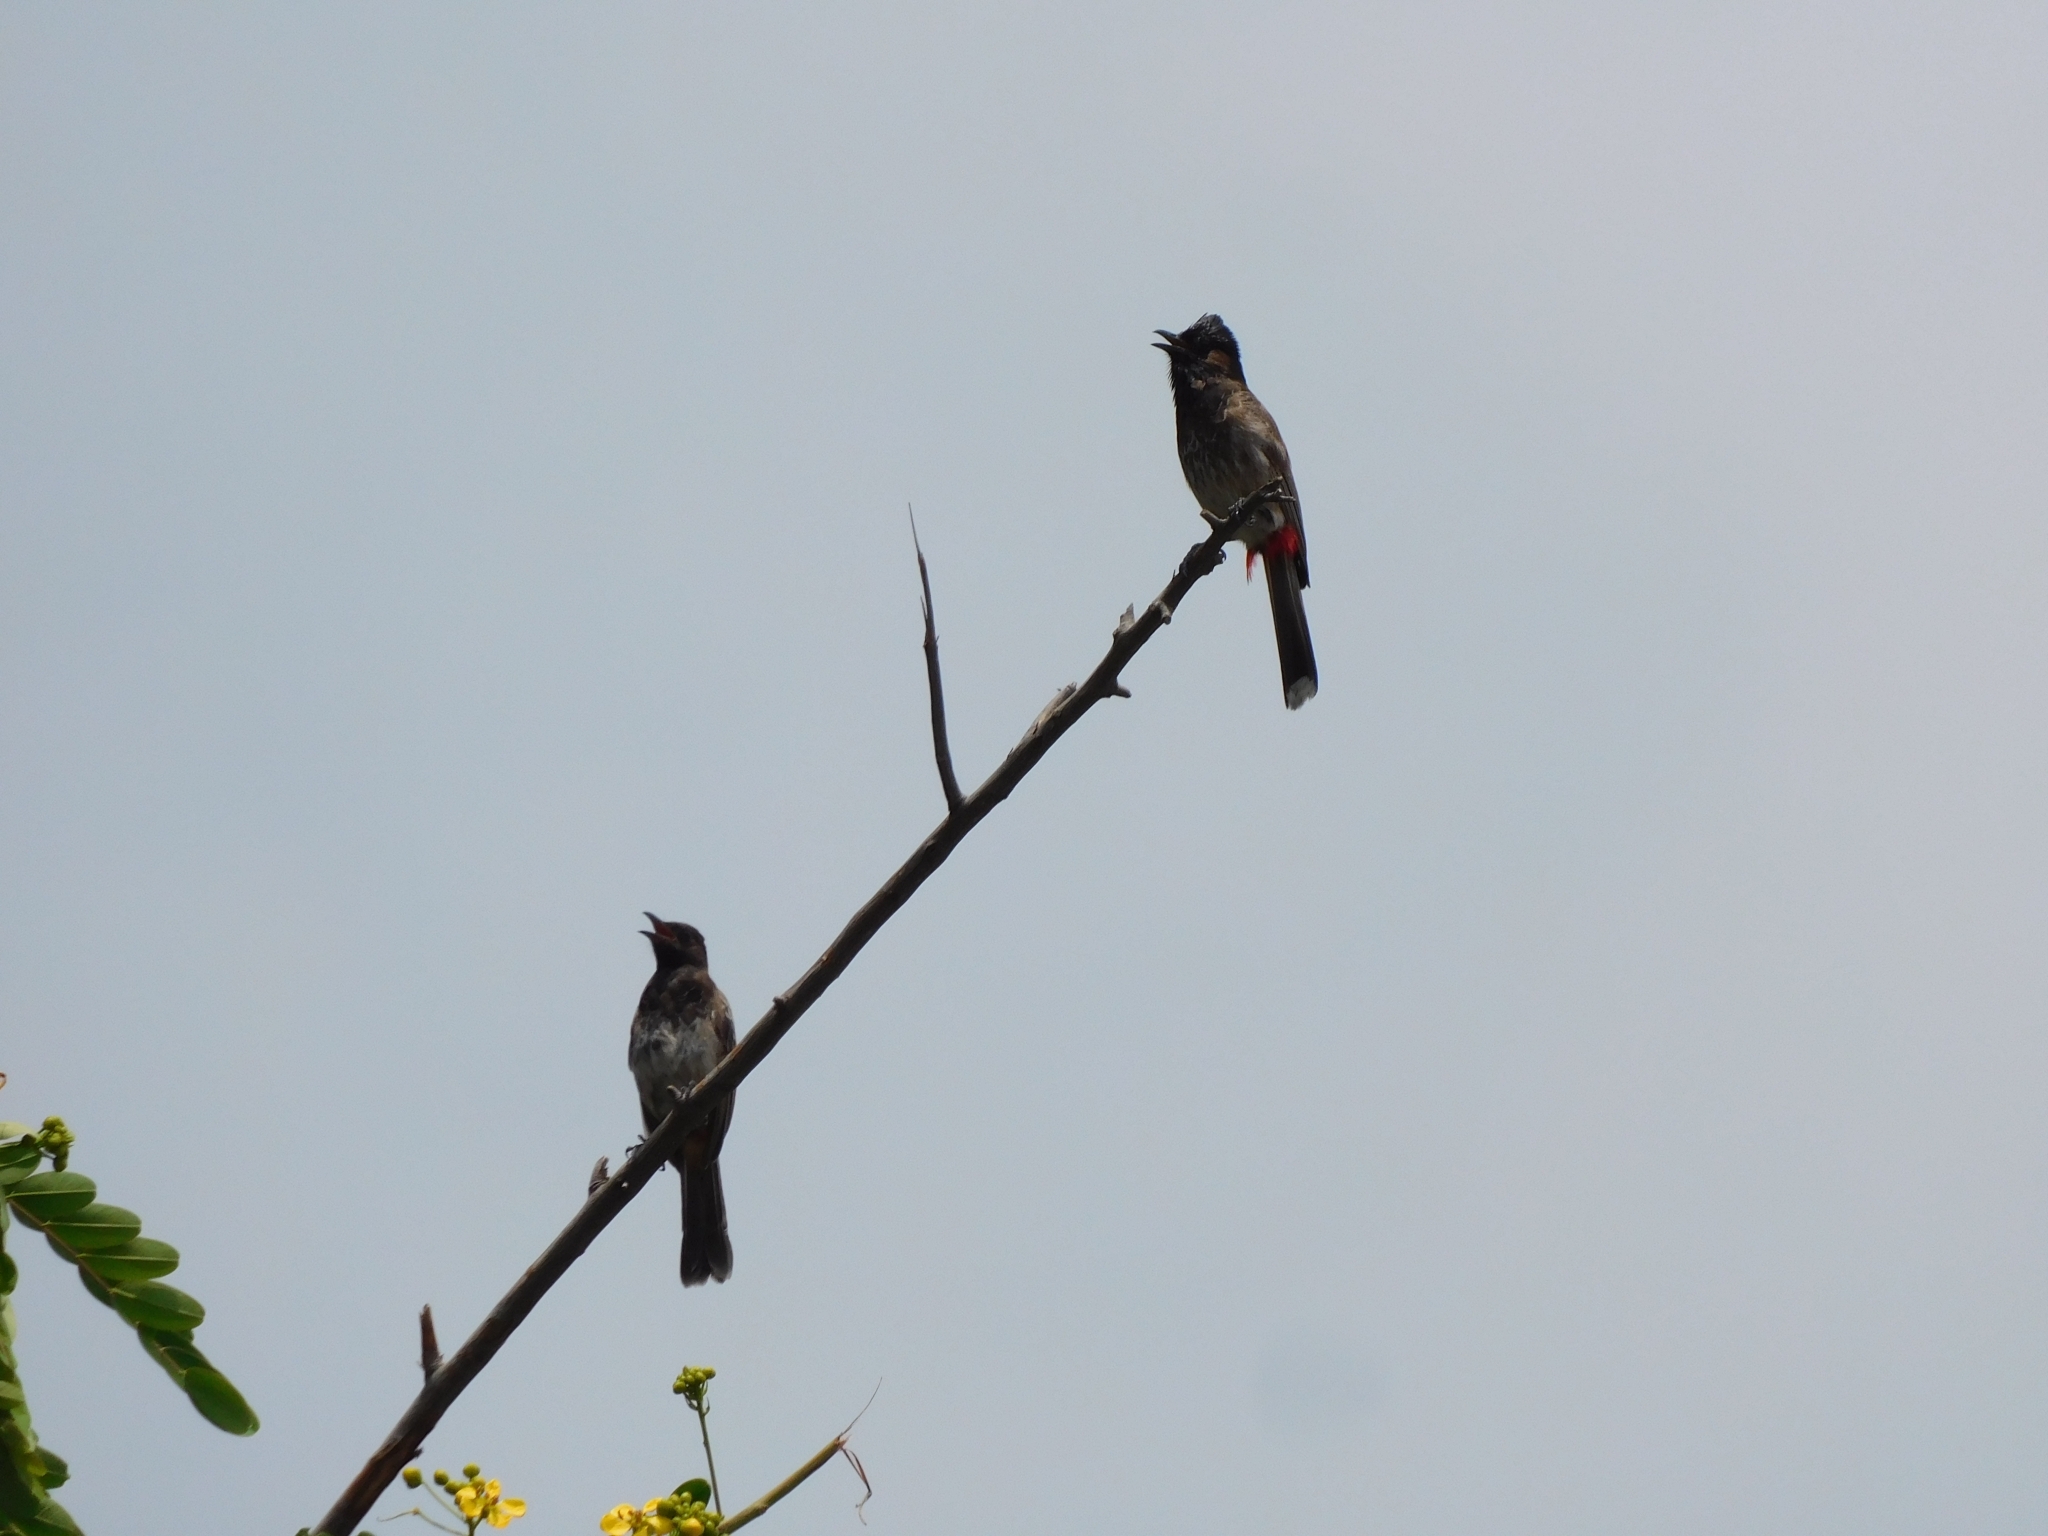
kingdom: Animalia
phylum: Chordata
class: Aves
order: Passeriformes
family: Pycnonotidae
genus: Pycnonotus
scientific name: Pycnonotus cafer
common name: Red-vented bulbul
